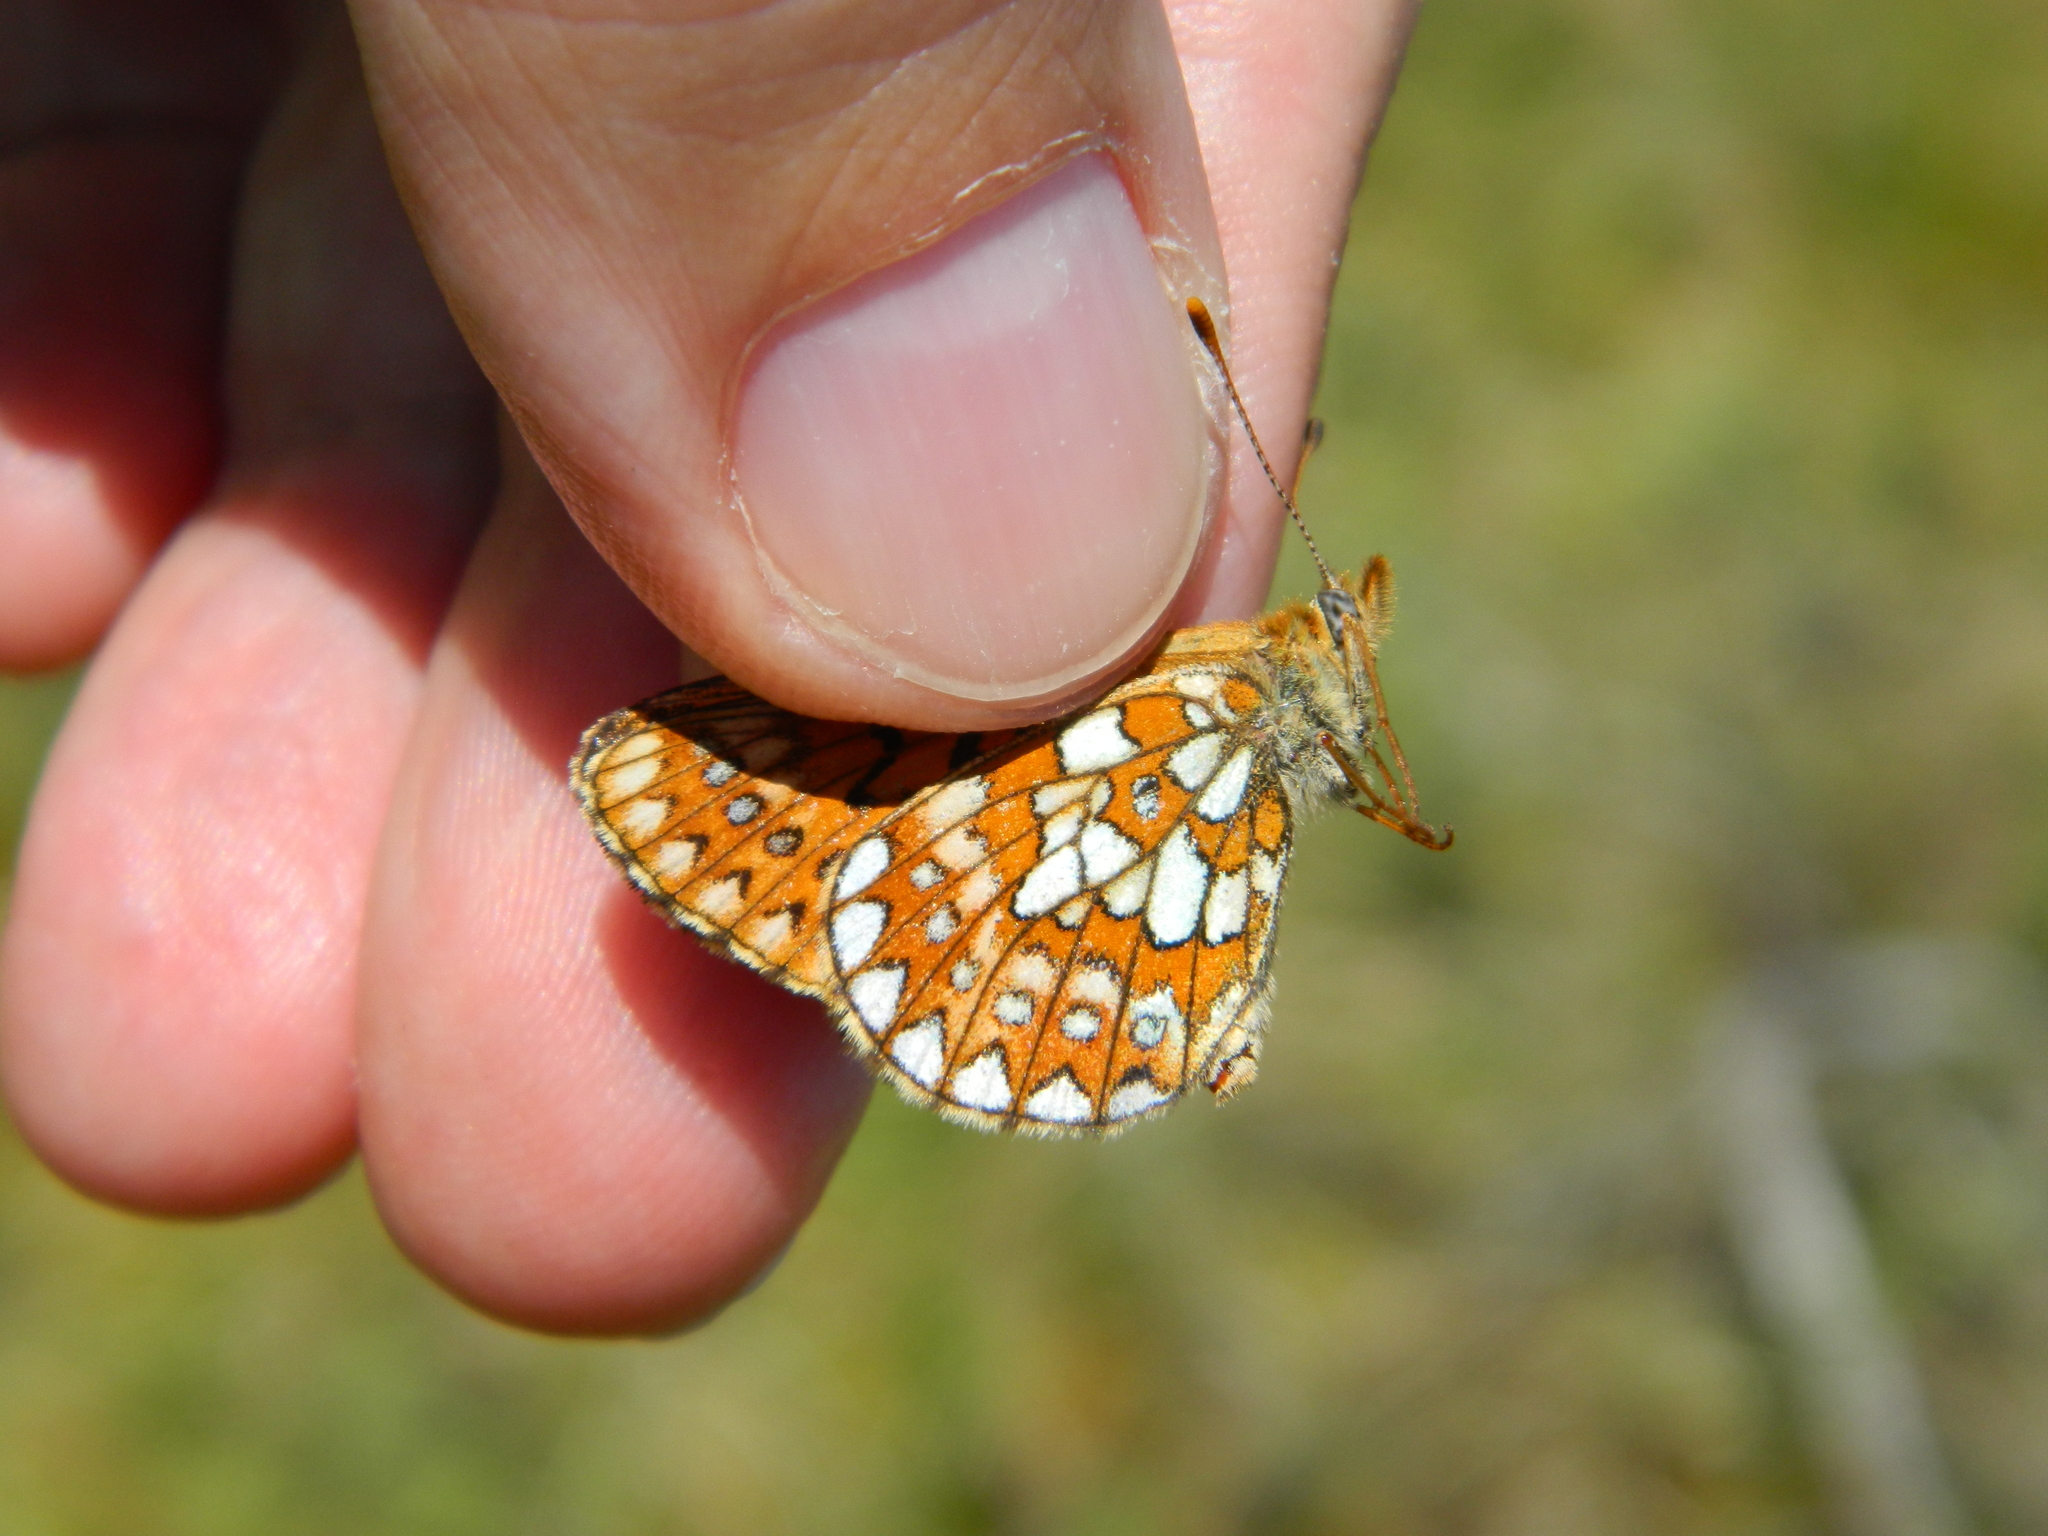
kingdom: Animalia
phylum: Arthropoda
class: Insecta
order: Lepidoptera
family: Nymphalidae
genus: Boloria
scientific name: Boloria eunomia
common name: Bog fritillary
